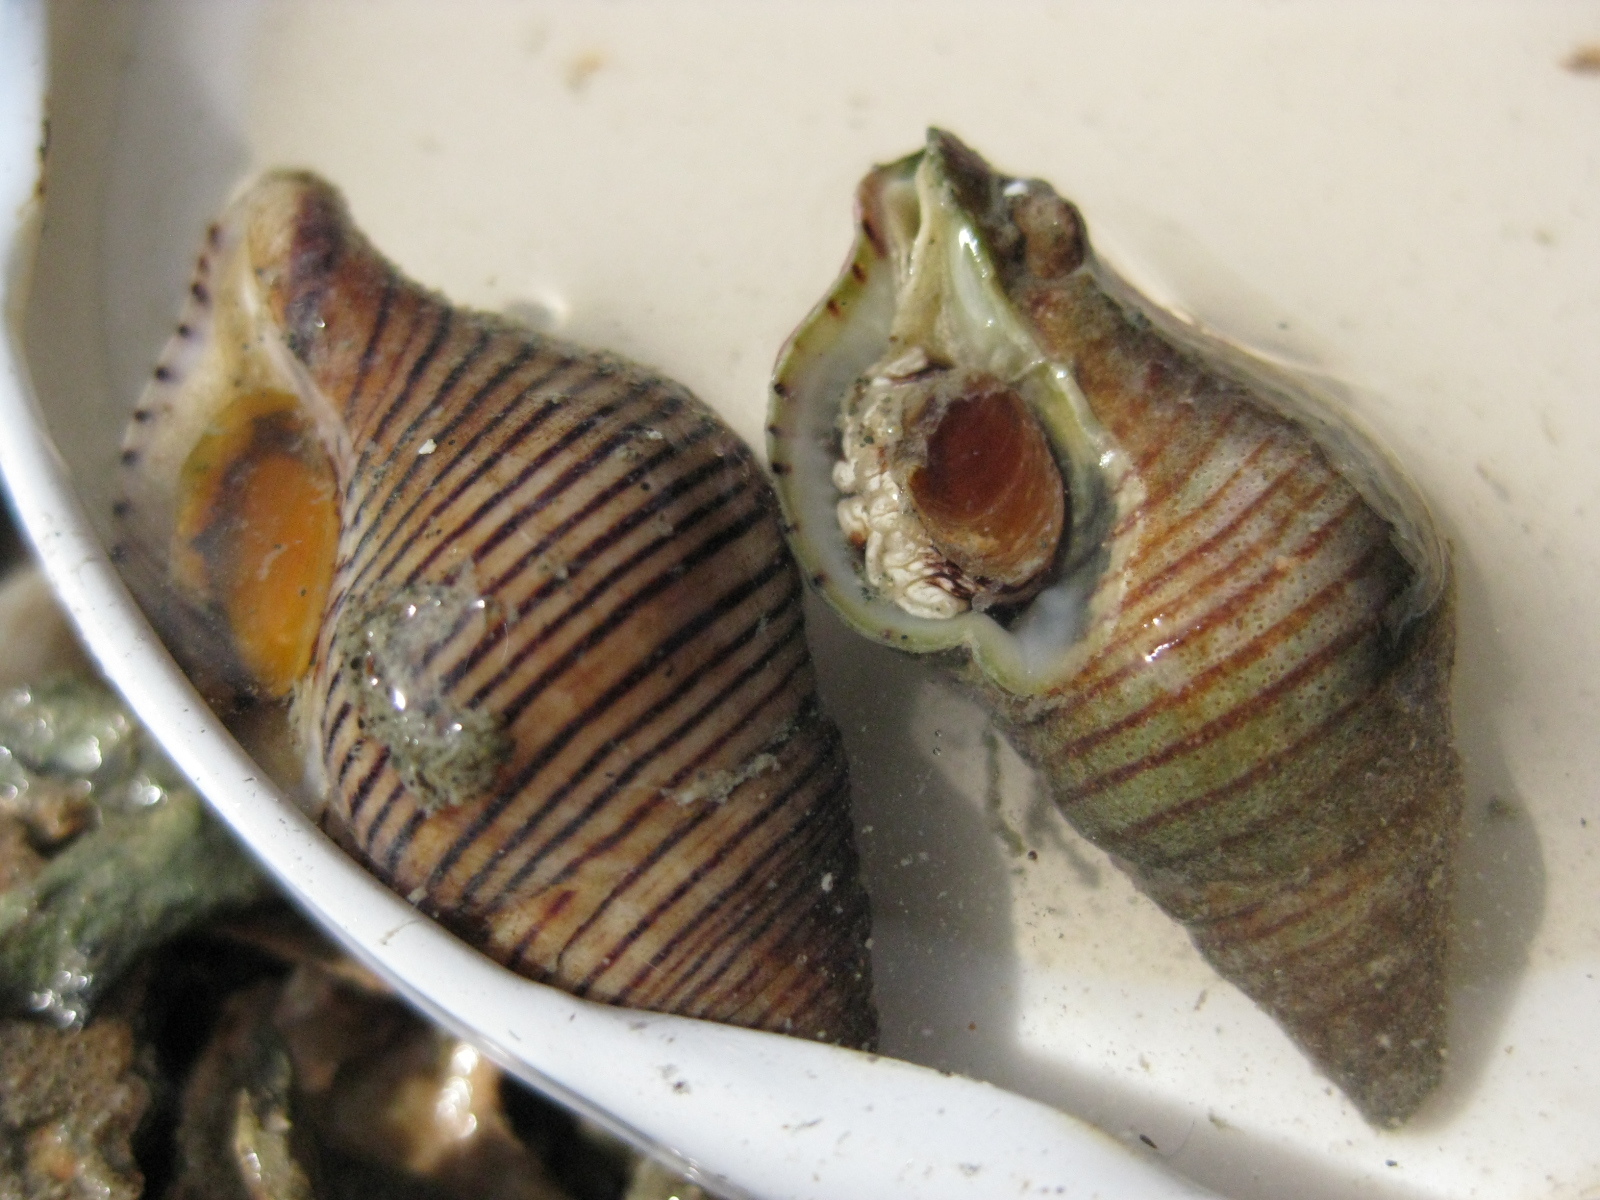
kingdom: Animalia
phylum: Mollusca
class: Gastropoda
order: Neogastropoda
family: Tudiclidae
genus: Buccinulum
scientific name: Buccinulum linea
